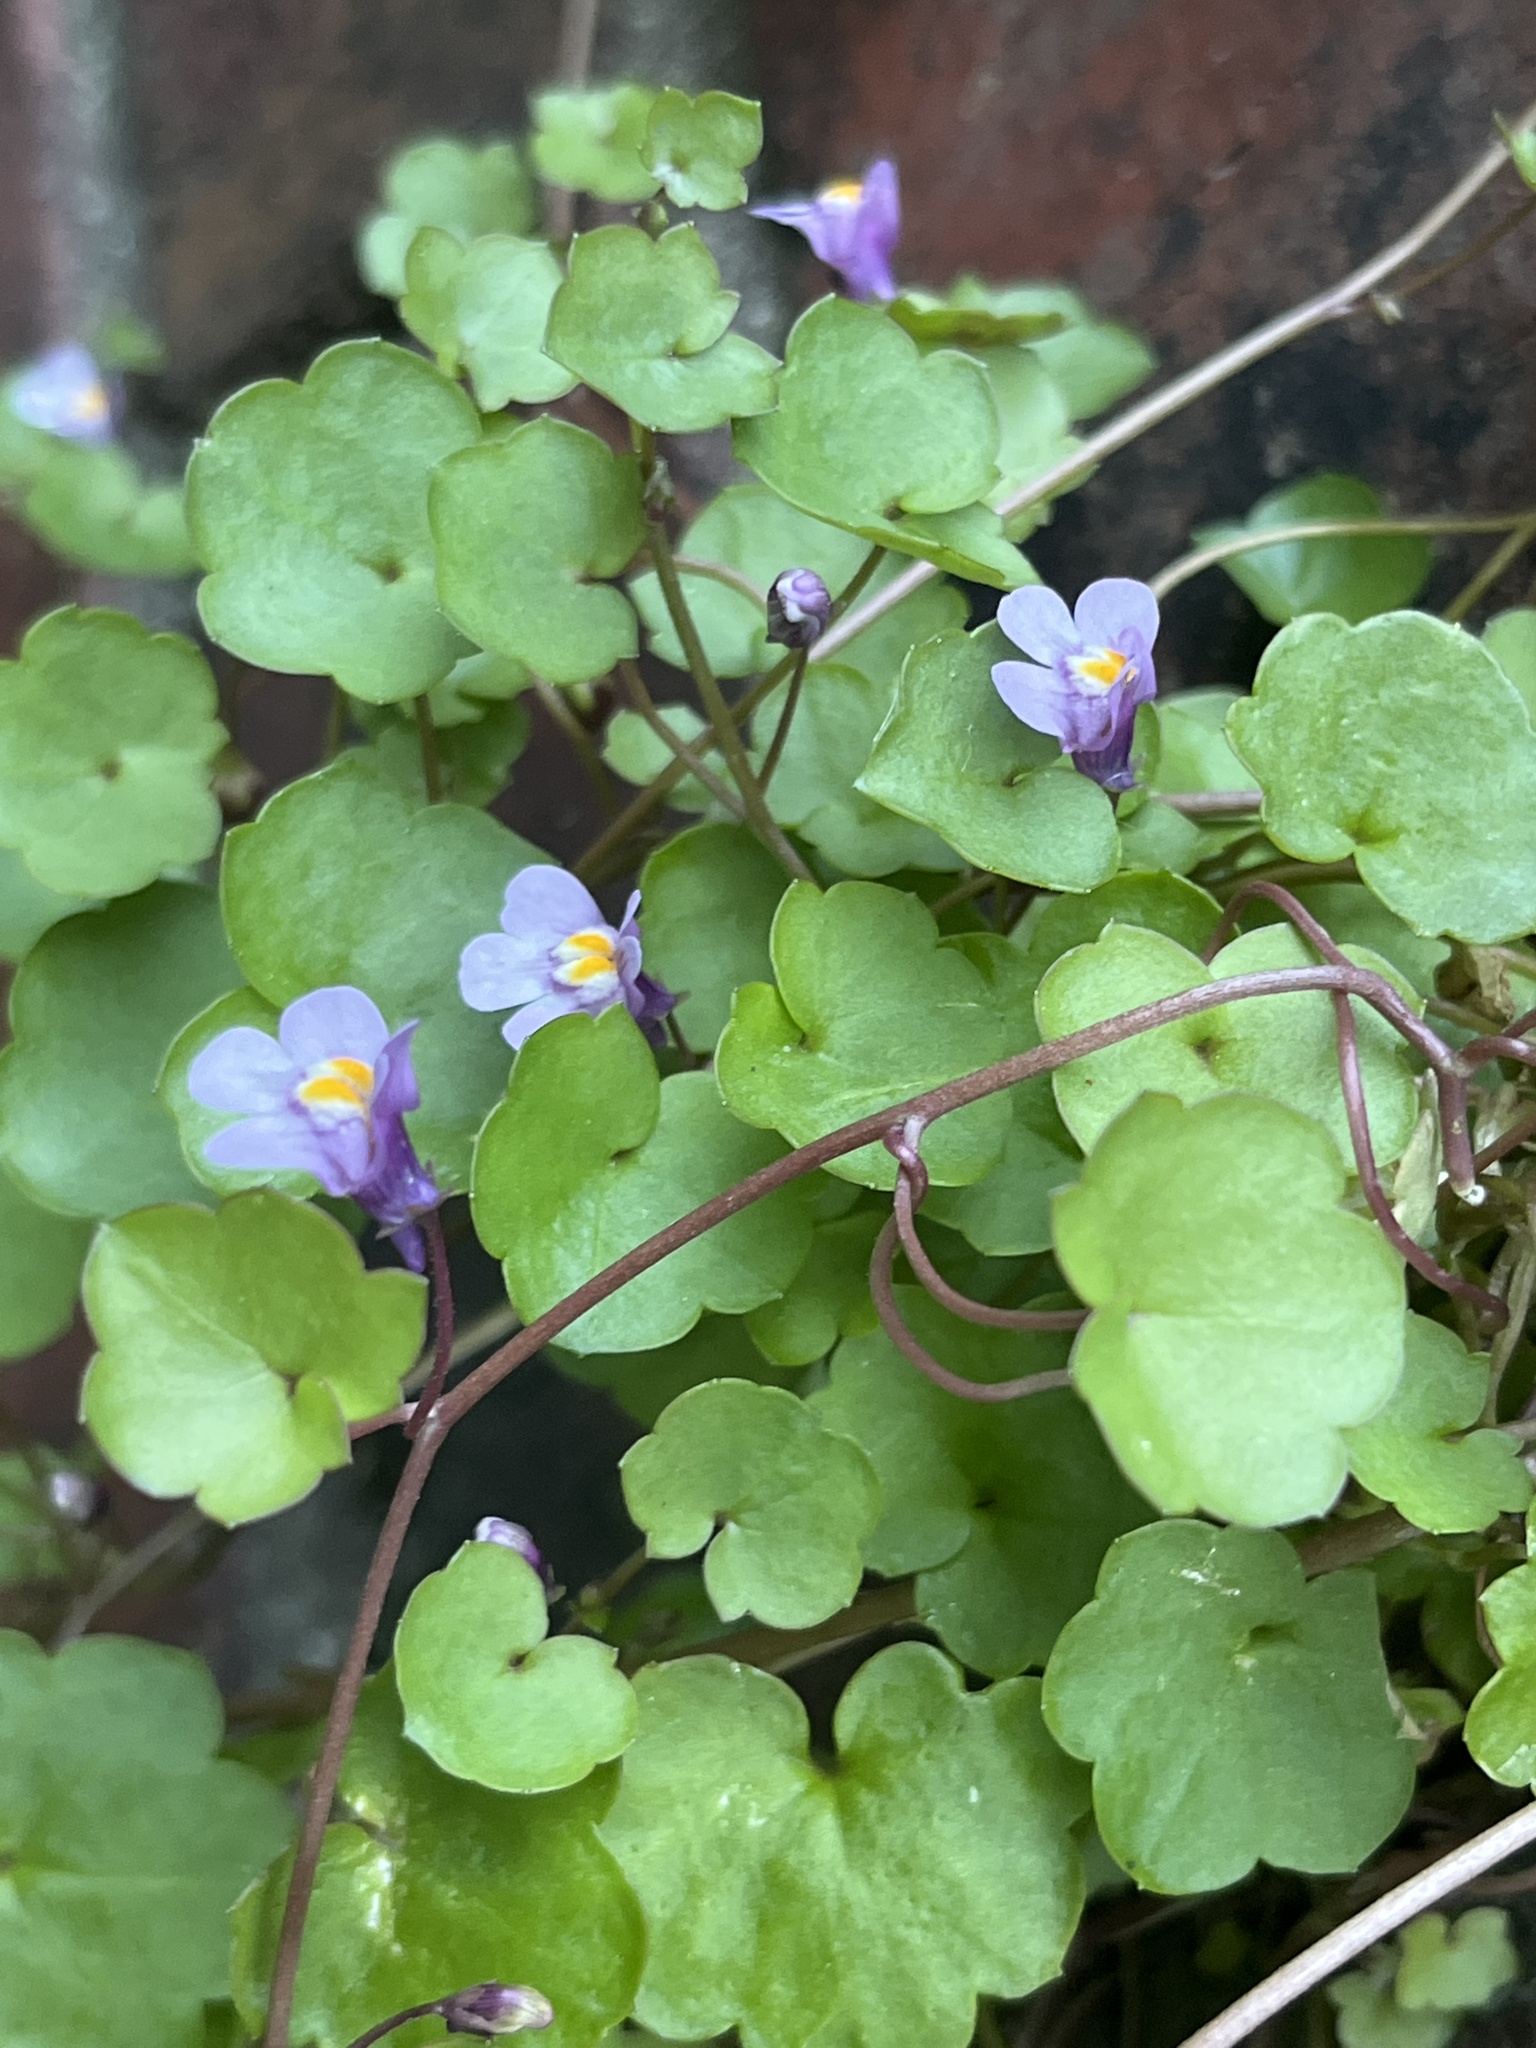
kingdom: Plantae
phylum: Tracheophyta
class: Magnoliopsida
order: Lamiales
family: Plantaginaceae
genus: Cymbalaria
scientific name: Cymbalaria muralis
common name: Ivy-leaved toadflax
